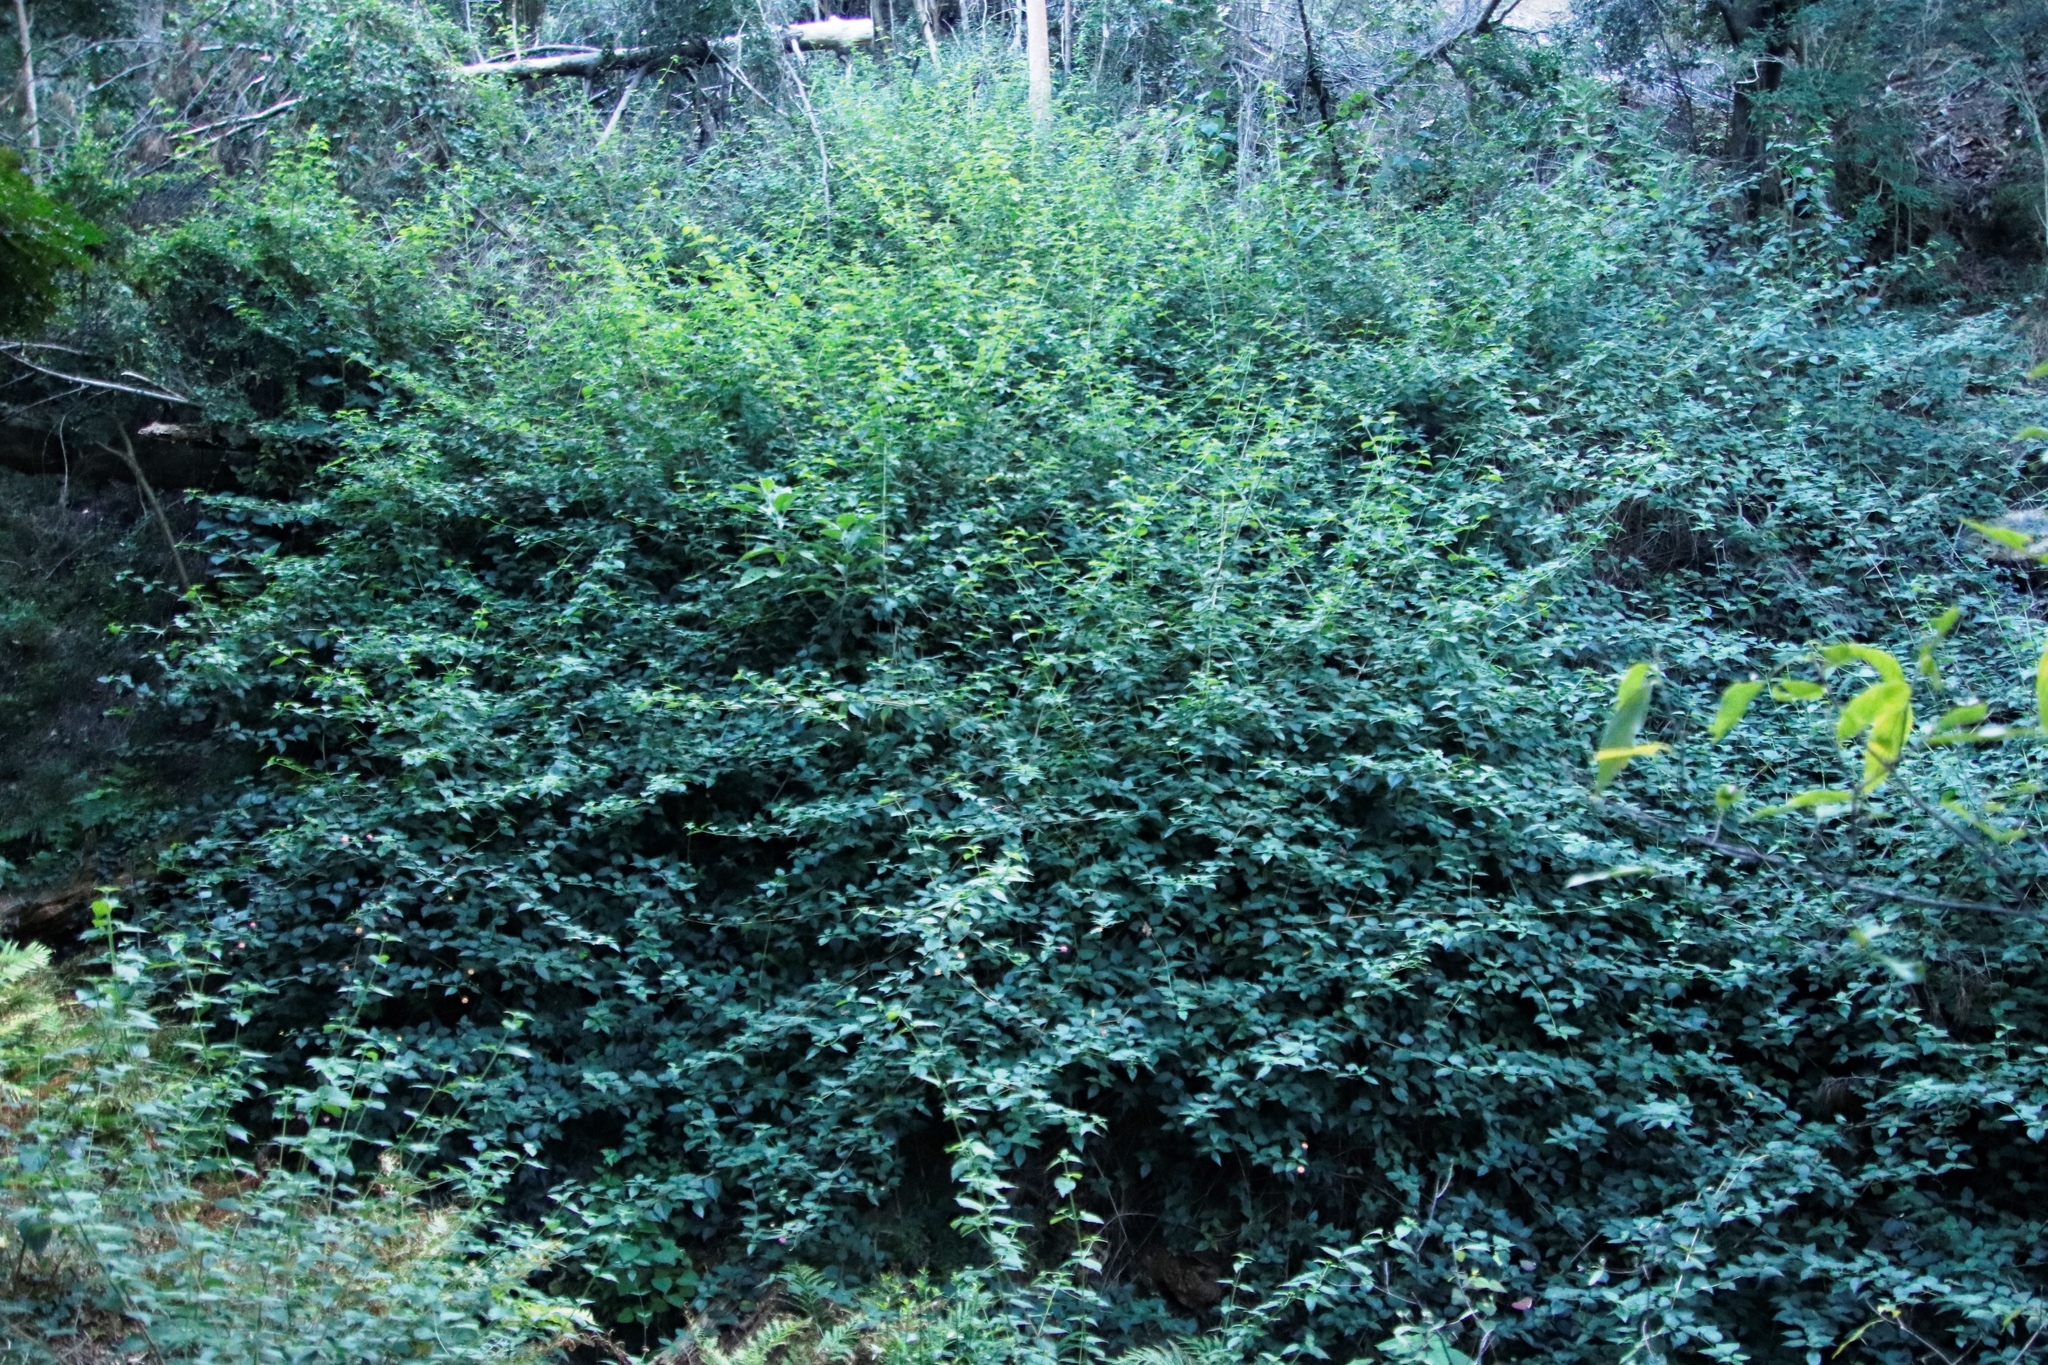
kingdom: Plantae
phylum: Tracheophyta
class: Magnoliopsida
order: Lamiales
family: Verbenaceae
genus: Lantana
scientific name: Lantana camara
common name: Lantana
